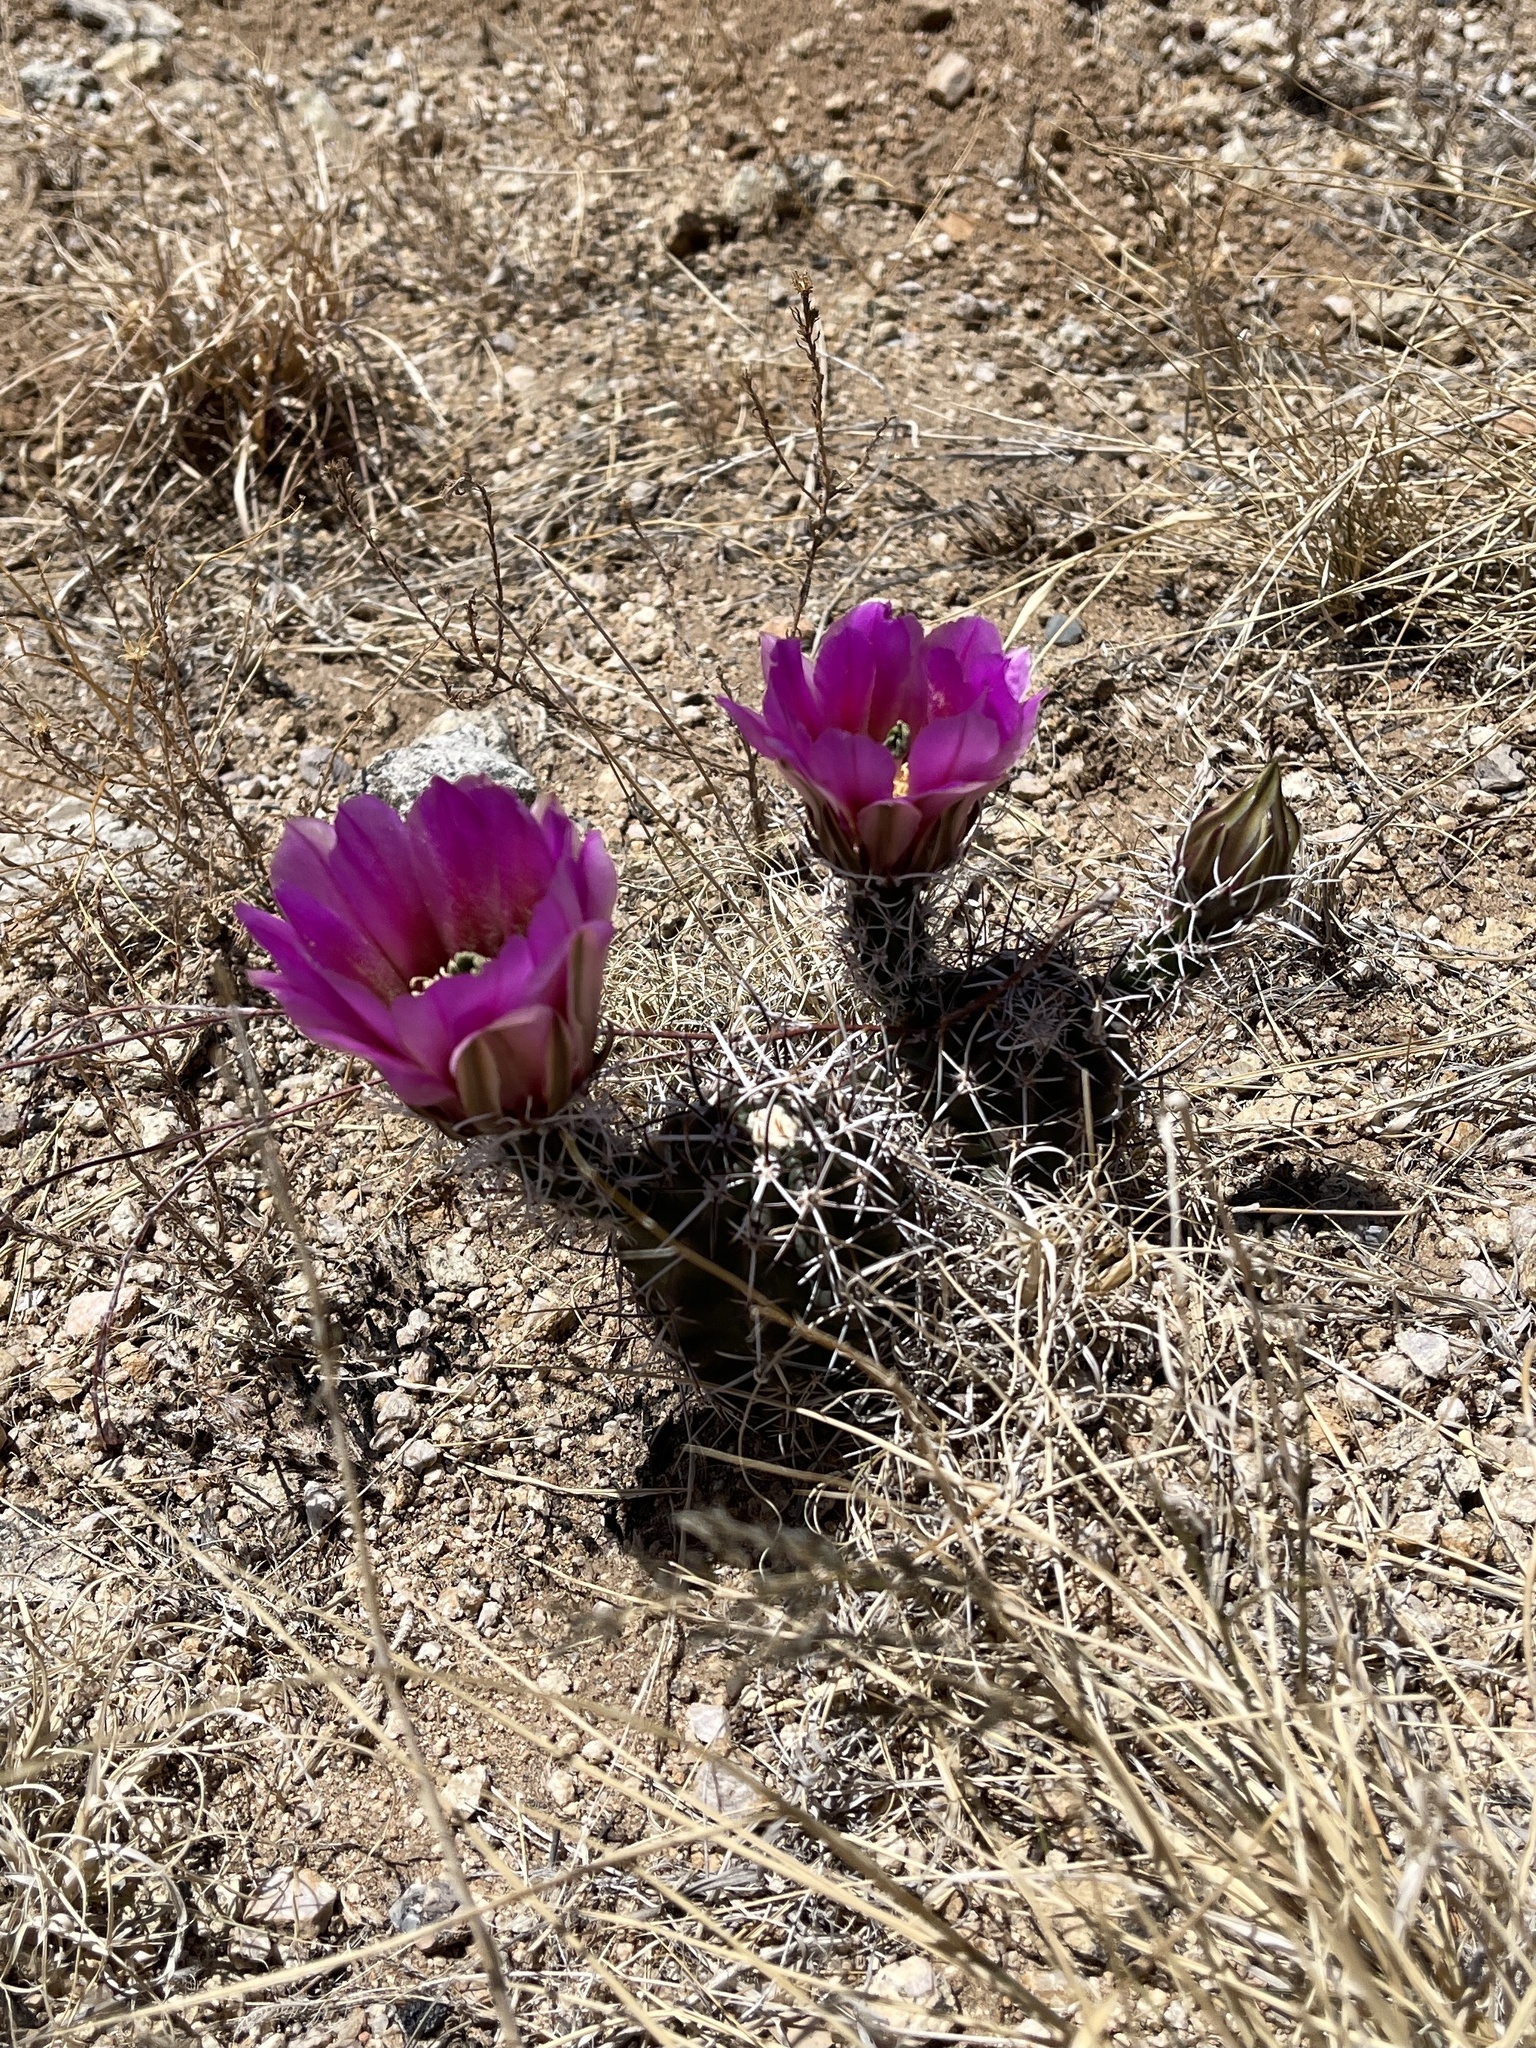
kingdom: Plantae
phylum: Tracheophyta
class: Magnoliopsida
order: Caryophyllales
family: Cactaceae
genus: Echinocereus
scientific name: Echinocereus fendleri
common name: Fendler's hedgehog cactus
